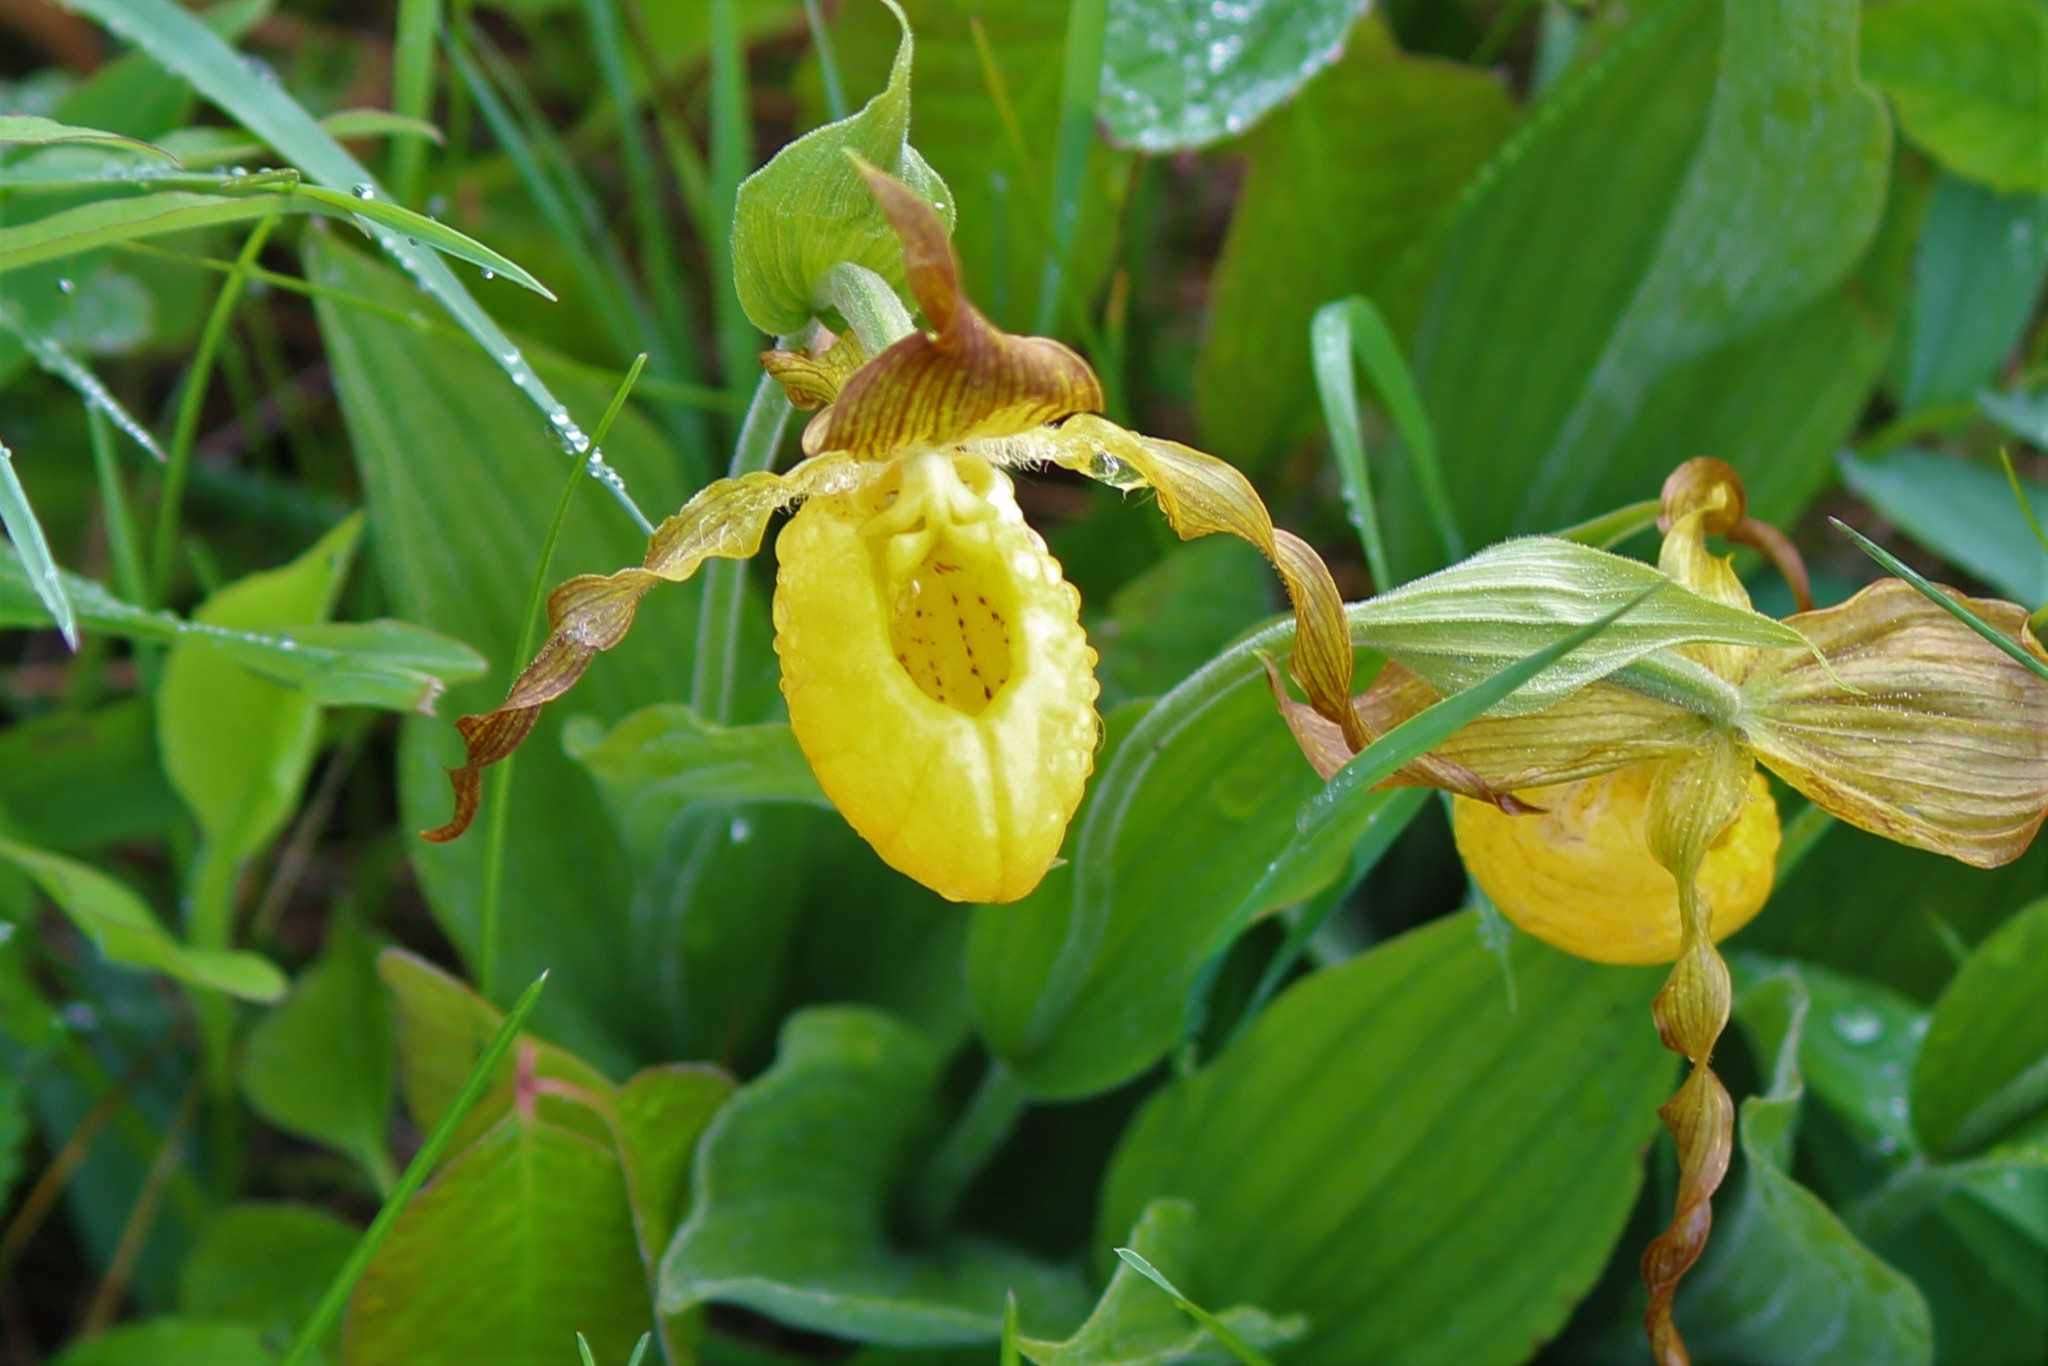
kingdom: Plantae
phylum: Tracheophyta
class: Liliopsida
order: Asparagales
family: Orchidaceae
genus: Cypripedium
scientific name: Cypripedium parviflorum
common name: American yellow lady's-slipper
